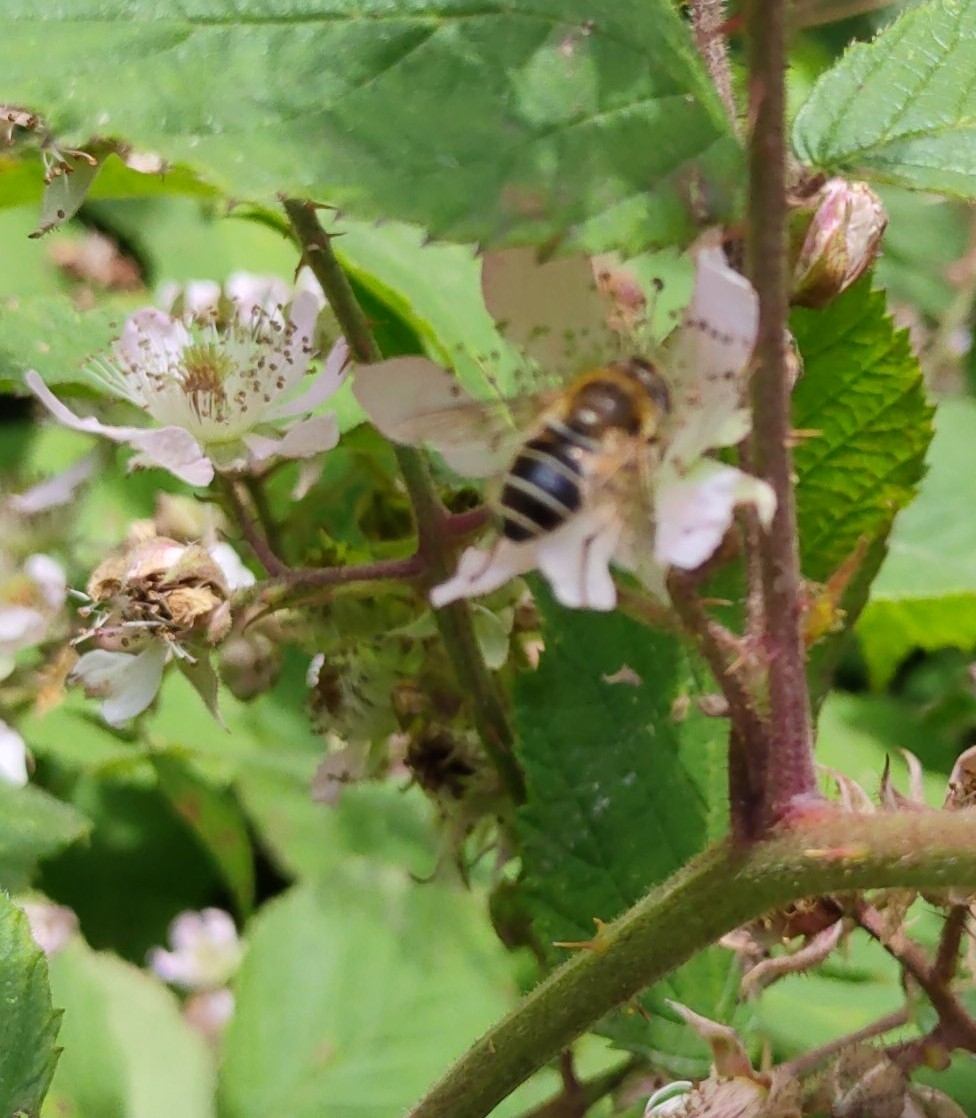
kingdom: Animalia
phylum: Arthropoda
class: Insecta
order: Diptera
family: Syrphidae
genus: Eoseristalis
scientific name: Eoseristalis
